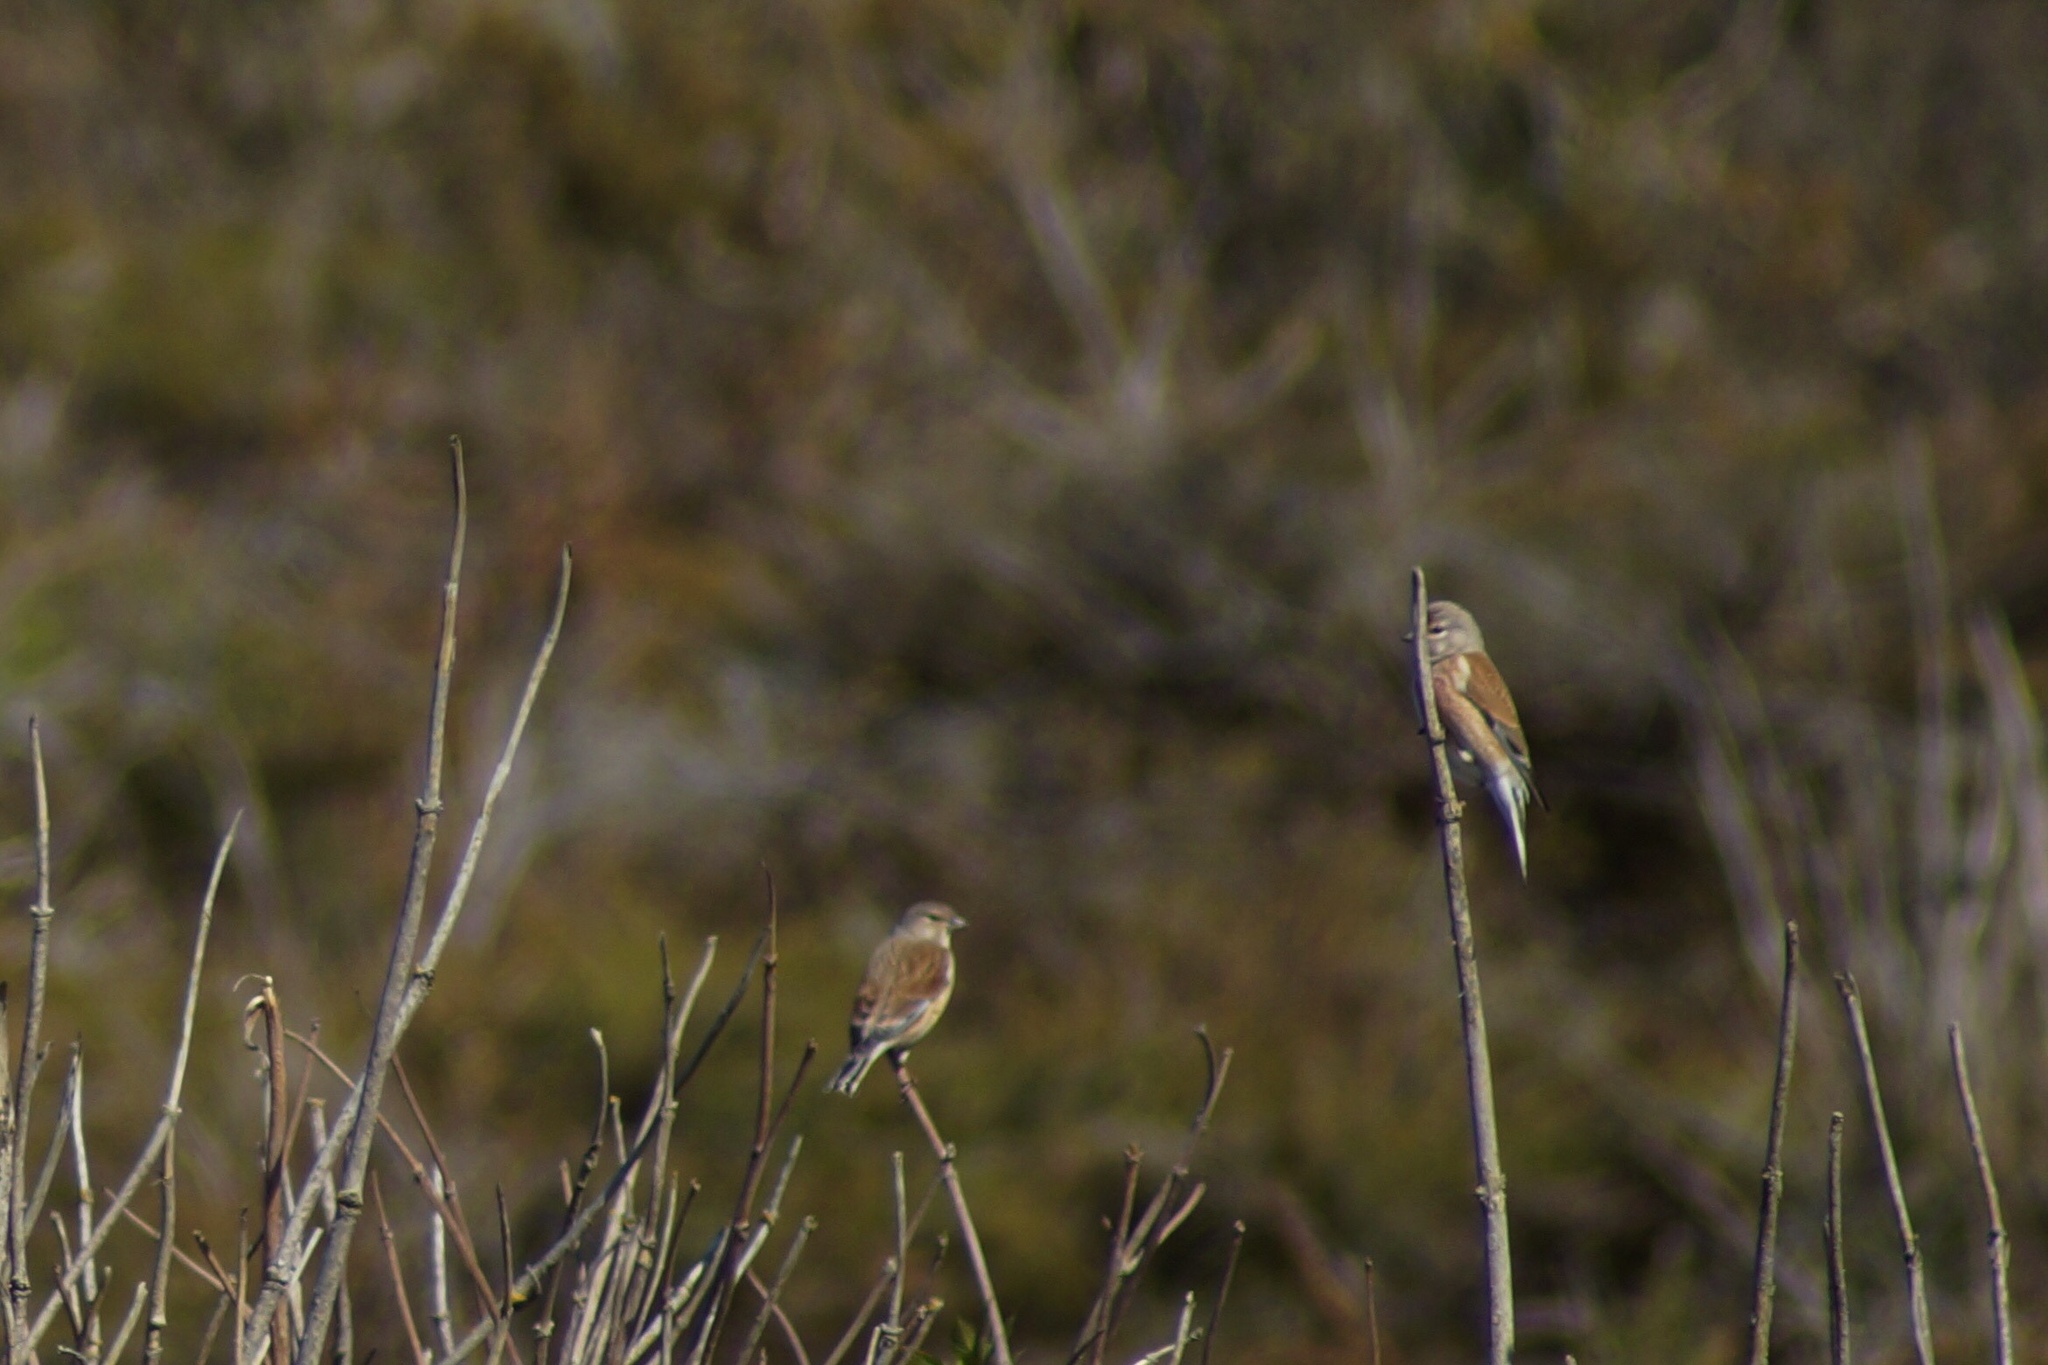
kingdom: Animalia
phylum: Chordata
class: Aves
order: Passeriformes
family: Fringillidae
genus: Linaria
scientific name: Linaria cannabina
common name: Common linnet
